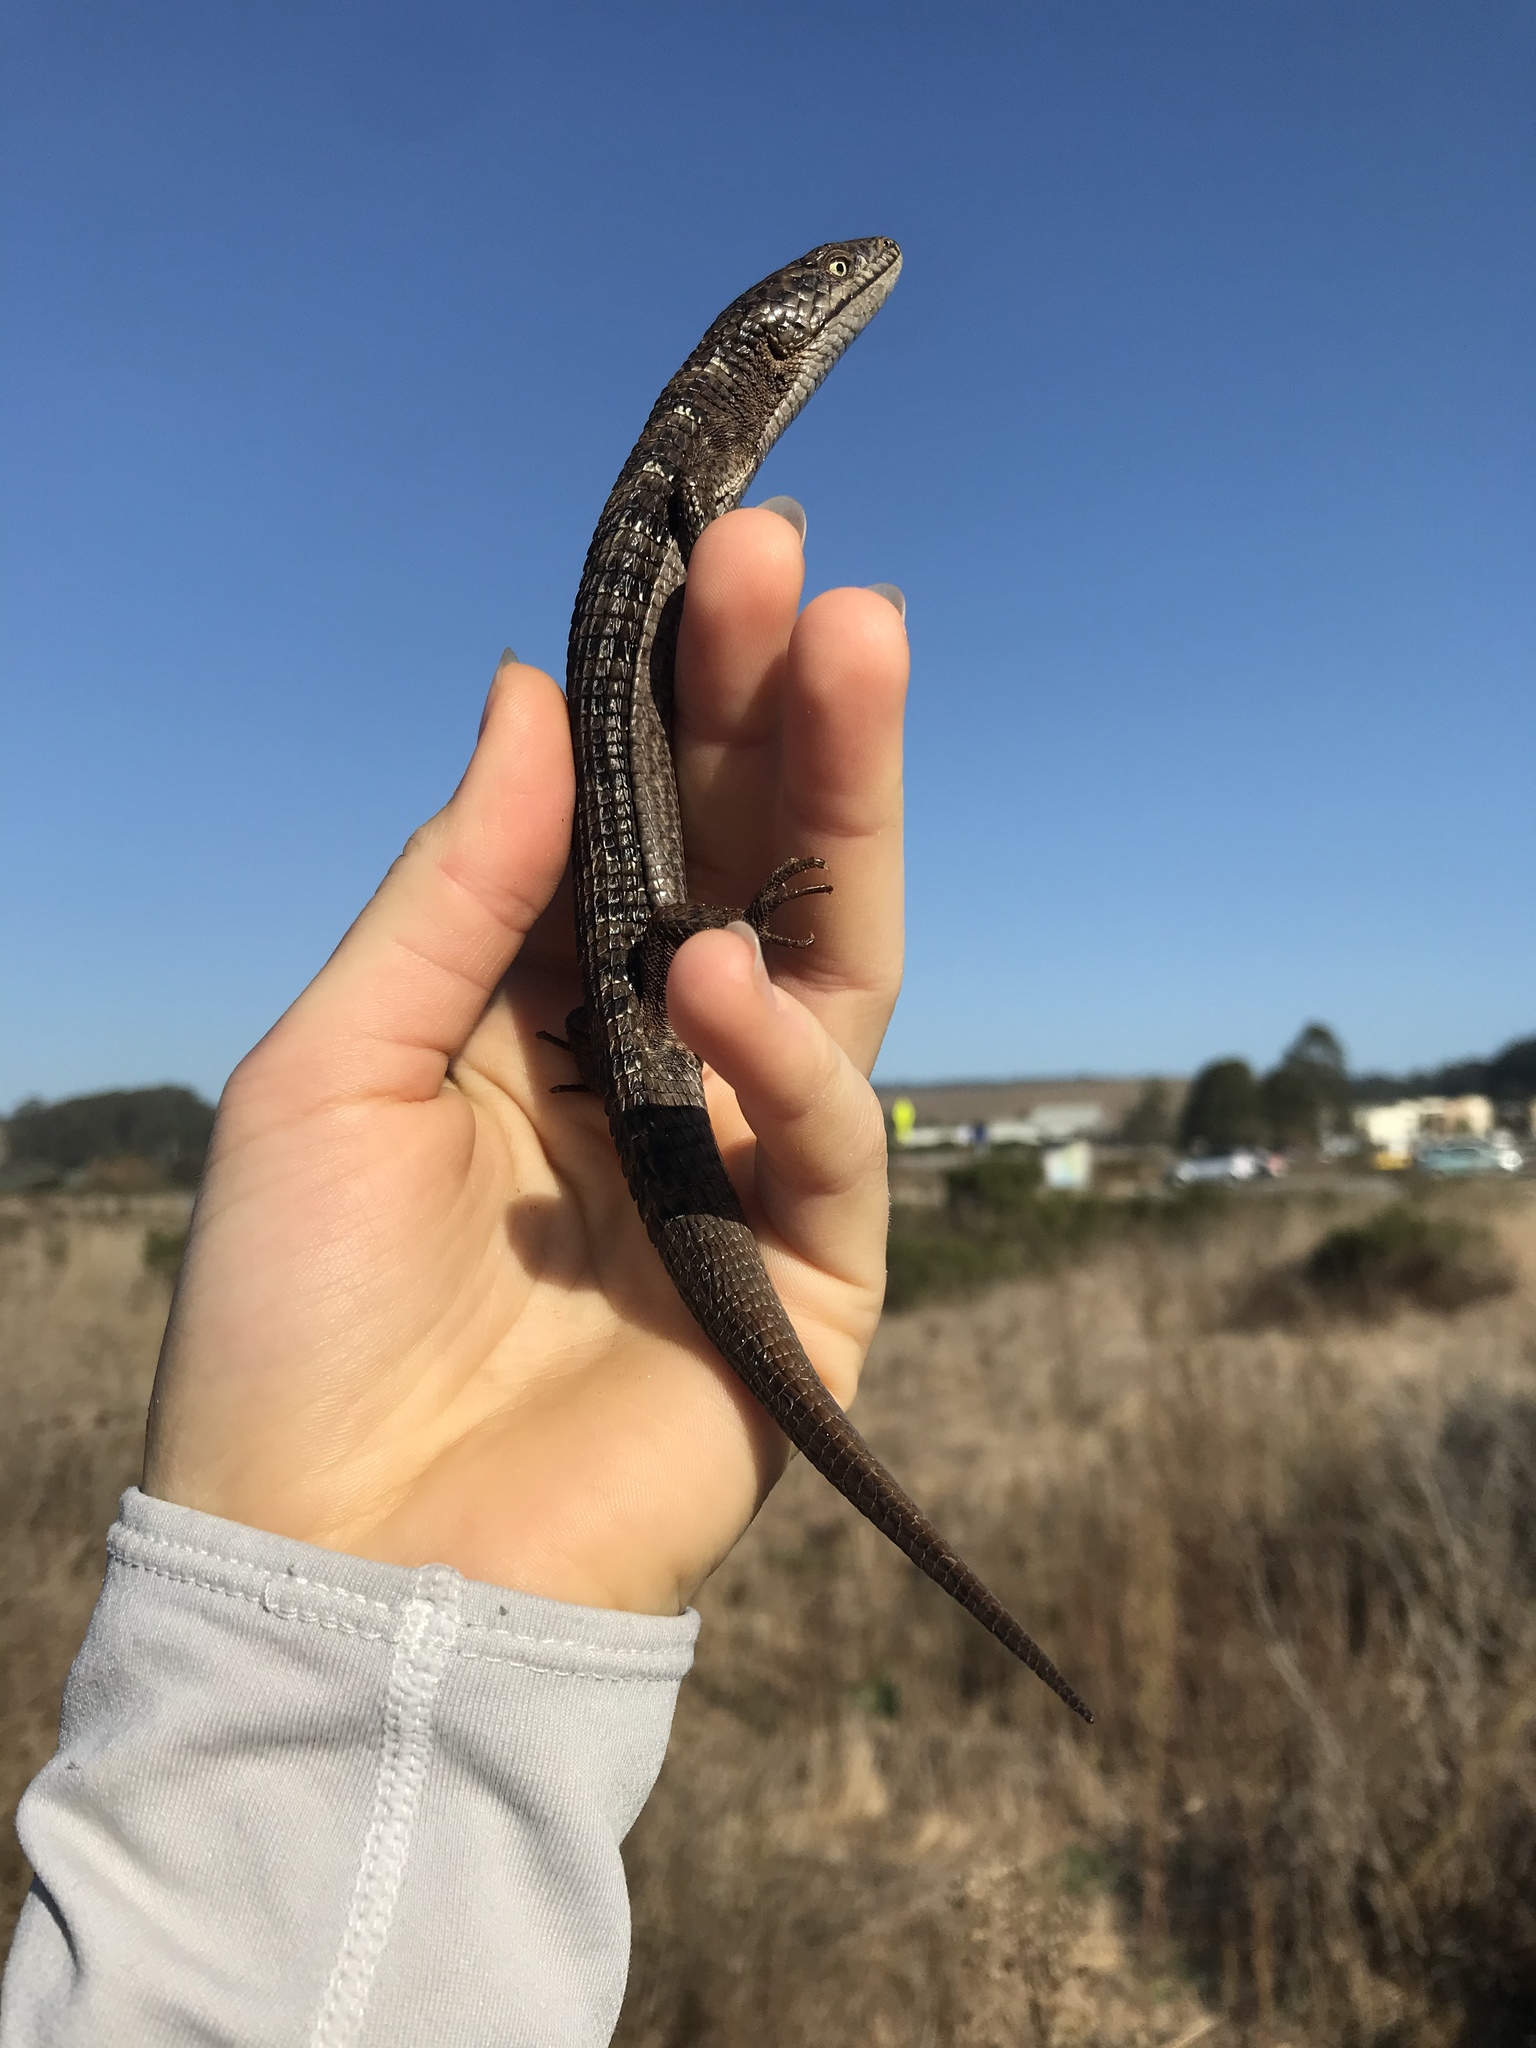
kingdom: Animalia
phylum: Chordata
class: Squamata
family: Anguidae
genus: Elgaria
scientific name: Elgaria multicarinata
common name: Southern alligator lizard
